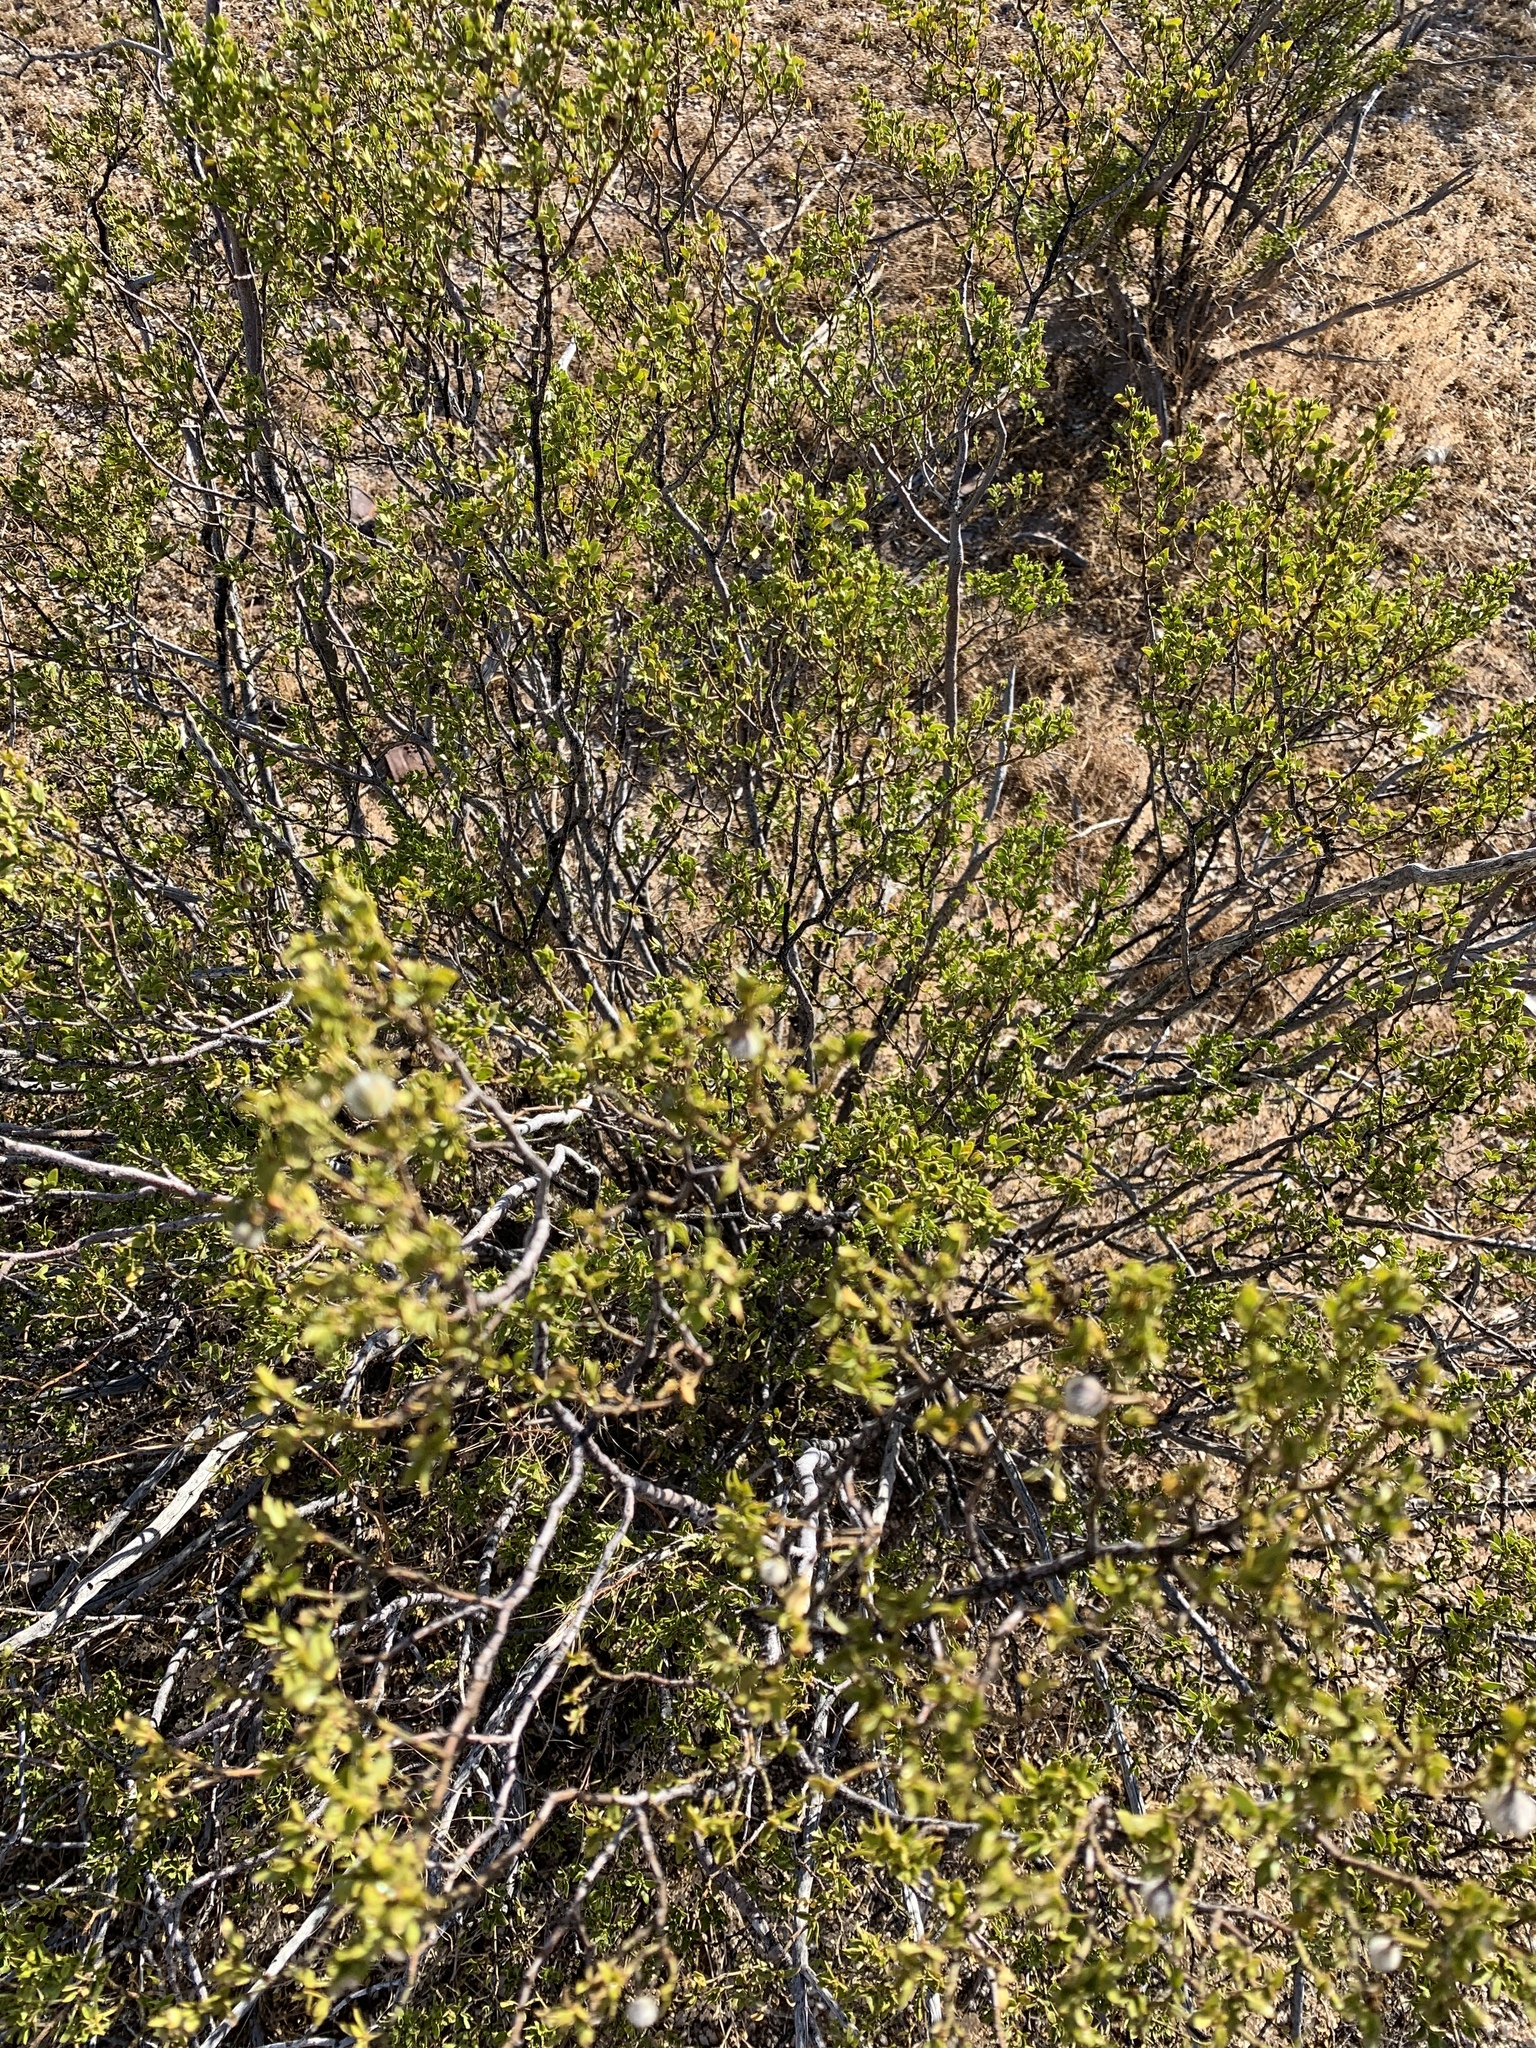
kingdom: Plantae
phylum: Tracheophyta
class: Magnoliopsida
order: Zygophyllales
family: Zygophyllaceae
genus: Larrea
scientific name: Larrea tridentata
